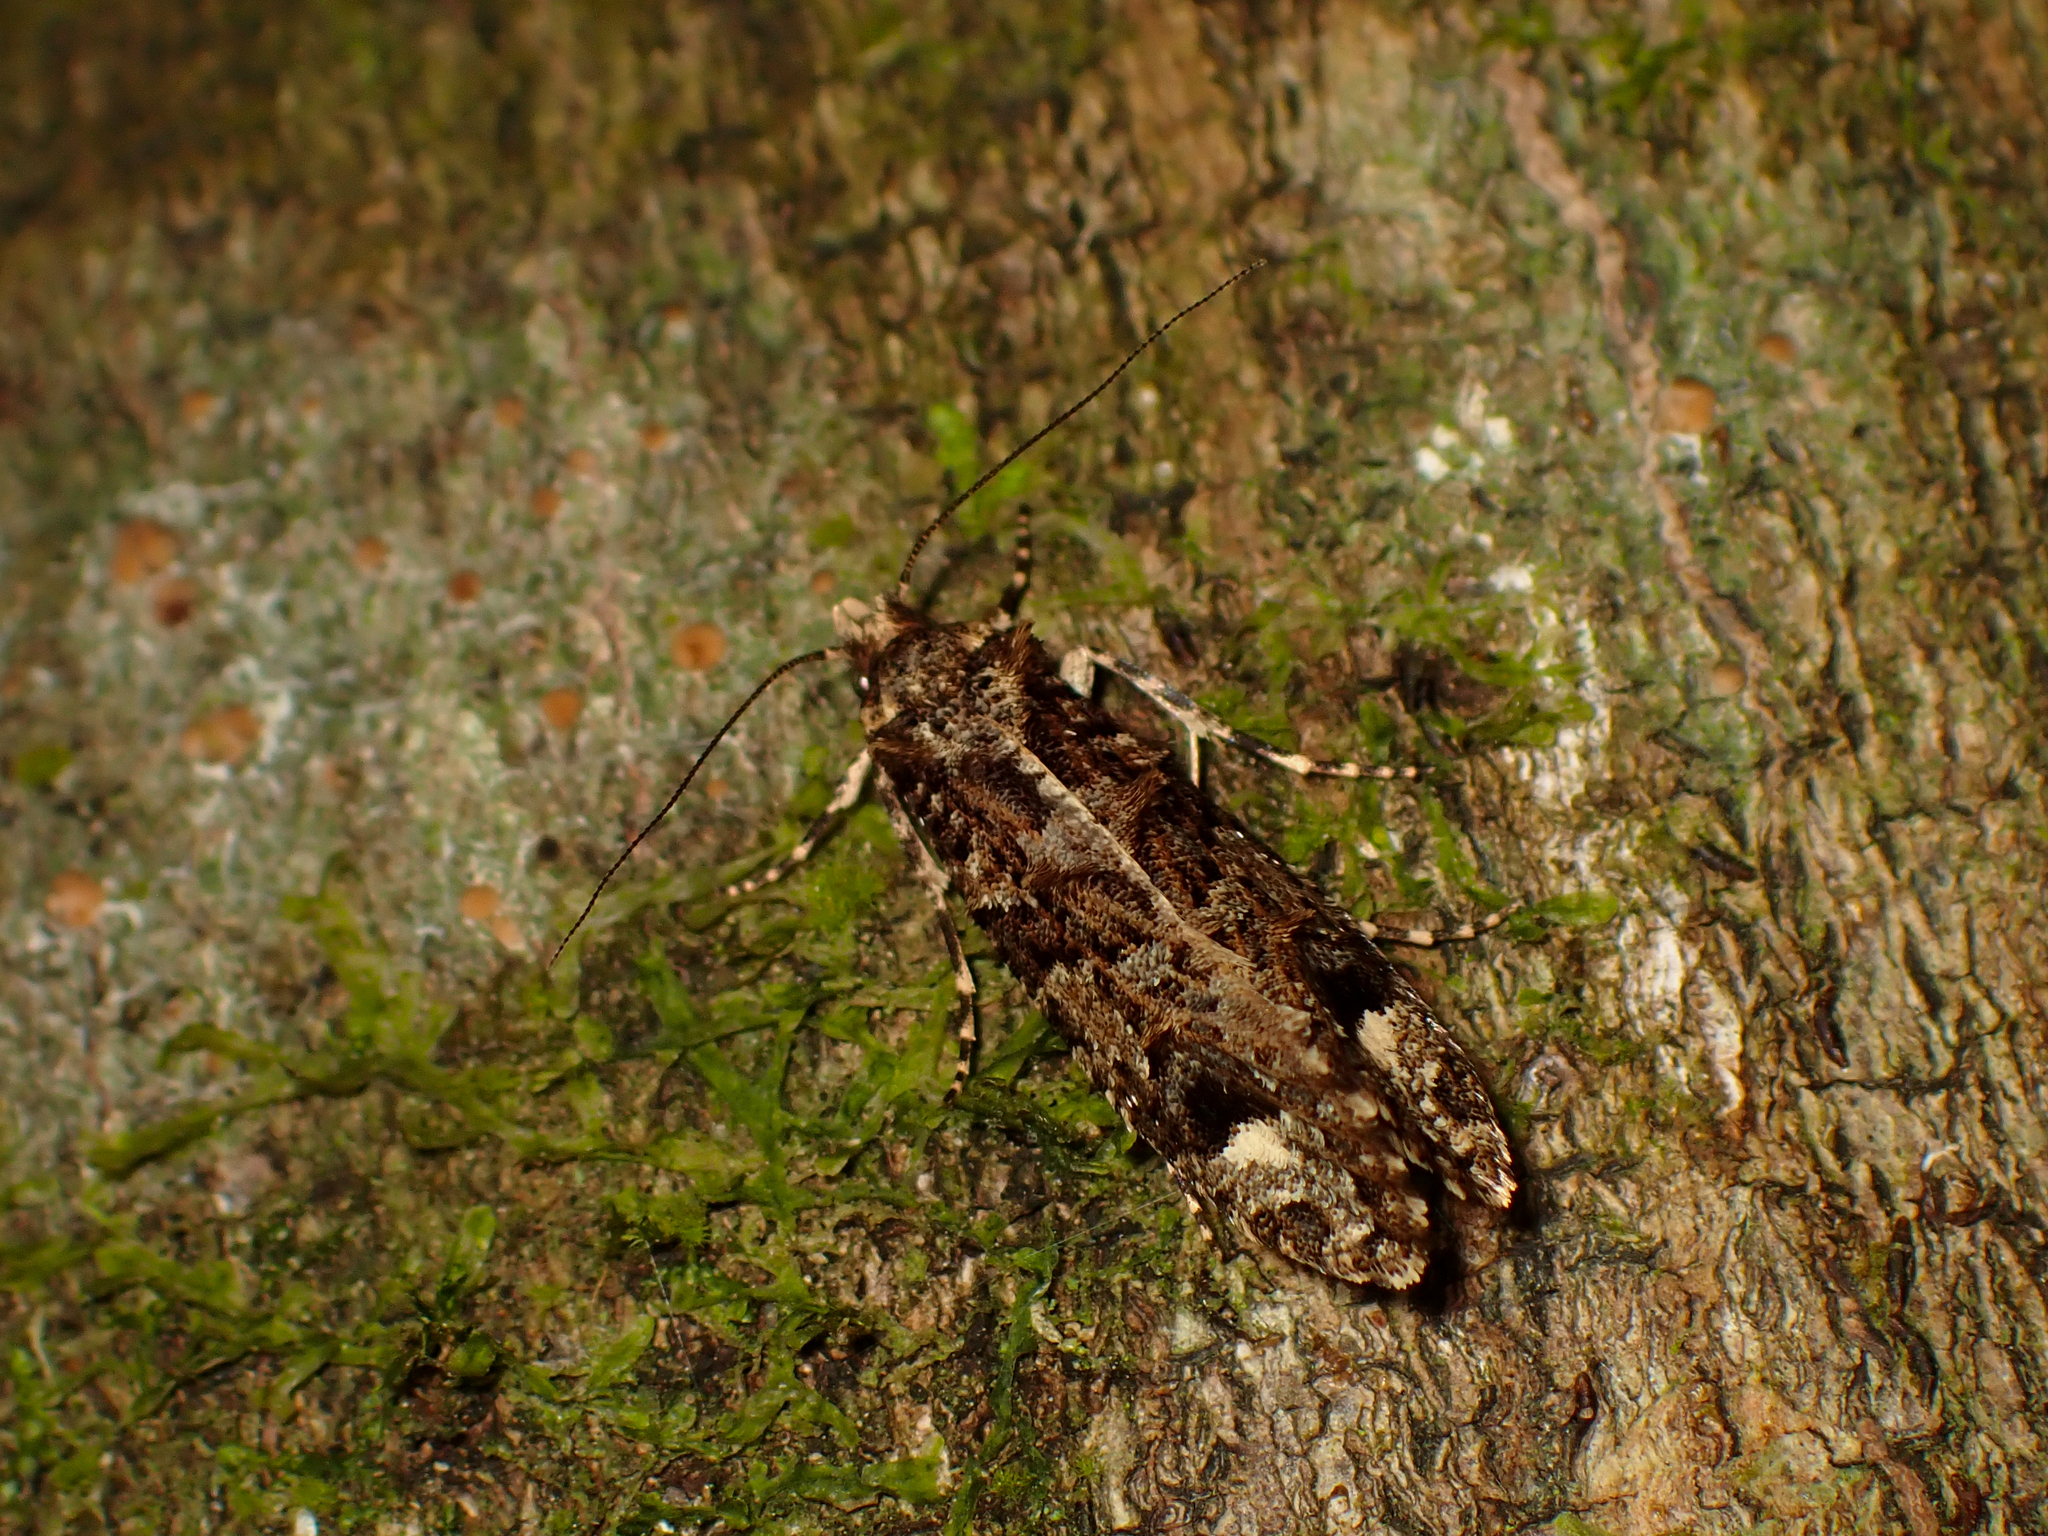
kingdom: Animalia
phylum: Arthropoda
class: Insecta
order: Lepidoptera
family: Tineidae
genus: Lysiphragma
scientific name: Lysiphragma epixyla
